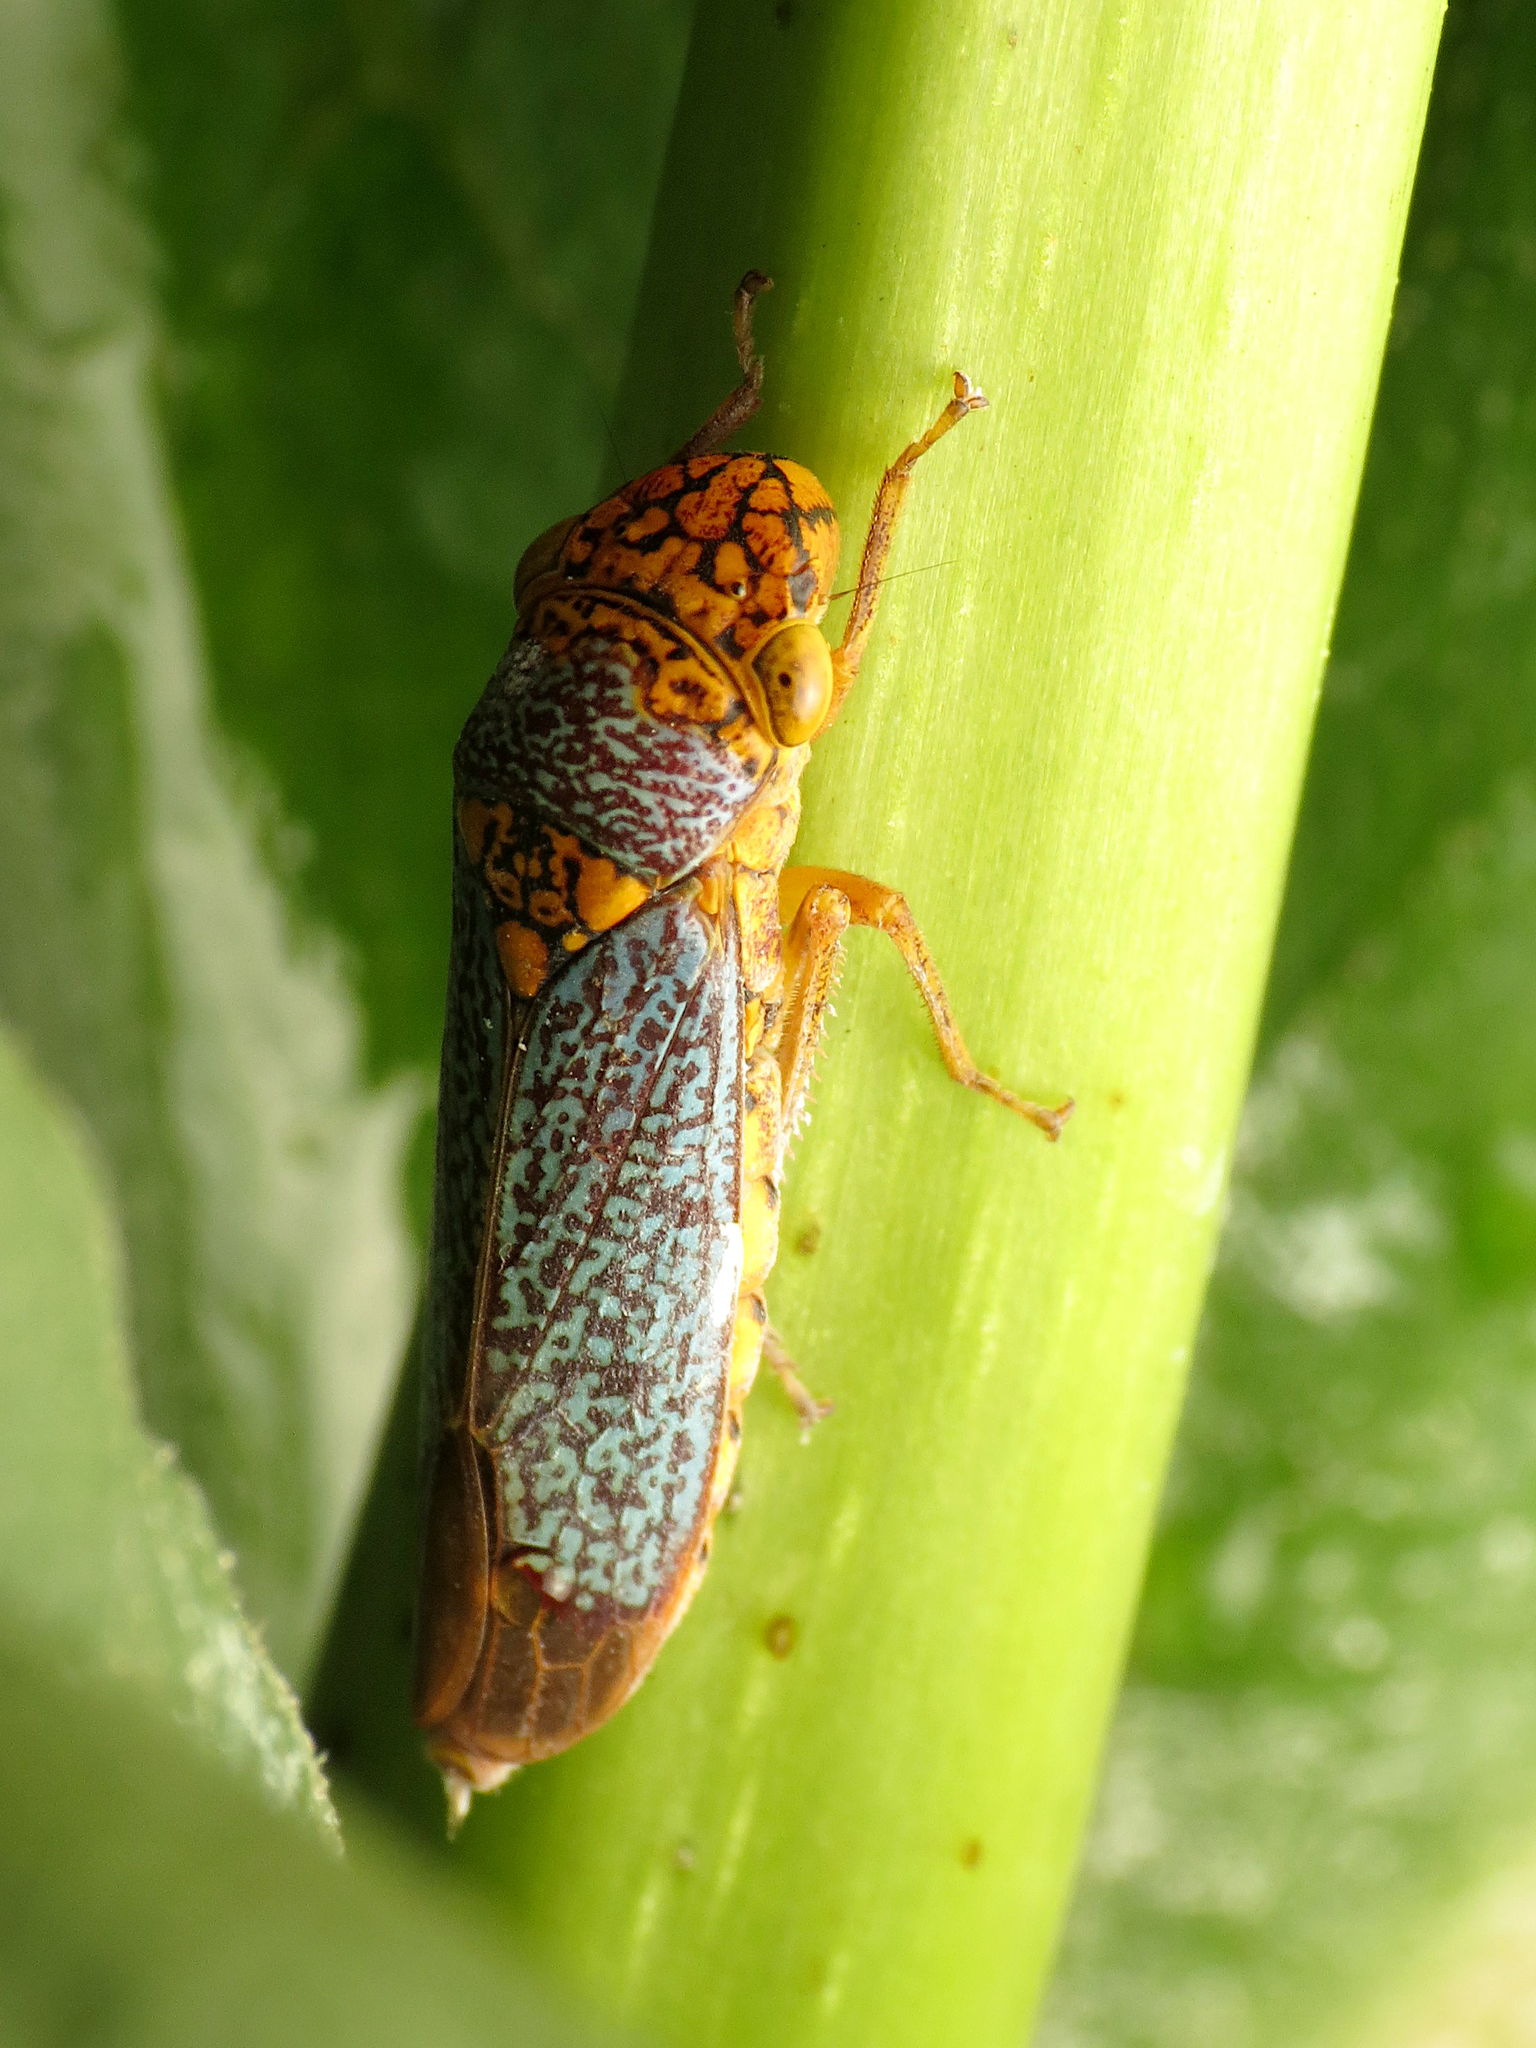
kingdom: Animalia
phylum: Arthropoda
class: Insecta
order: Hemiptera
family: Cicadellidae
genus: Oncometopia
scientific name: Oncometopia orbona
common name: Broad-headed sharpshooter
